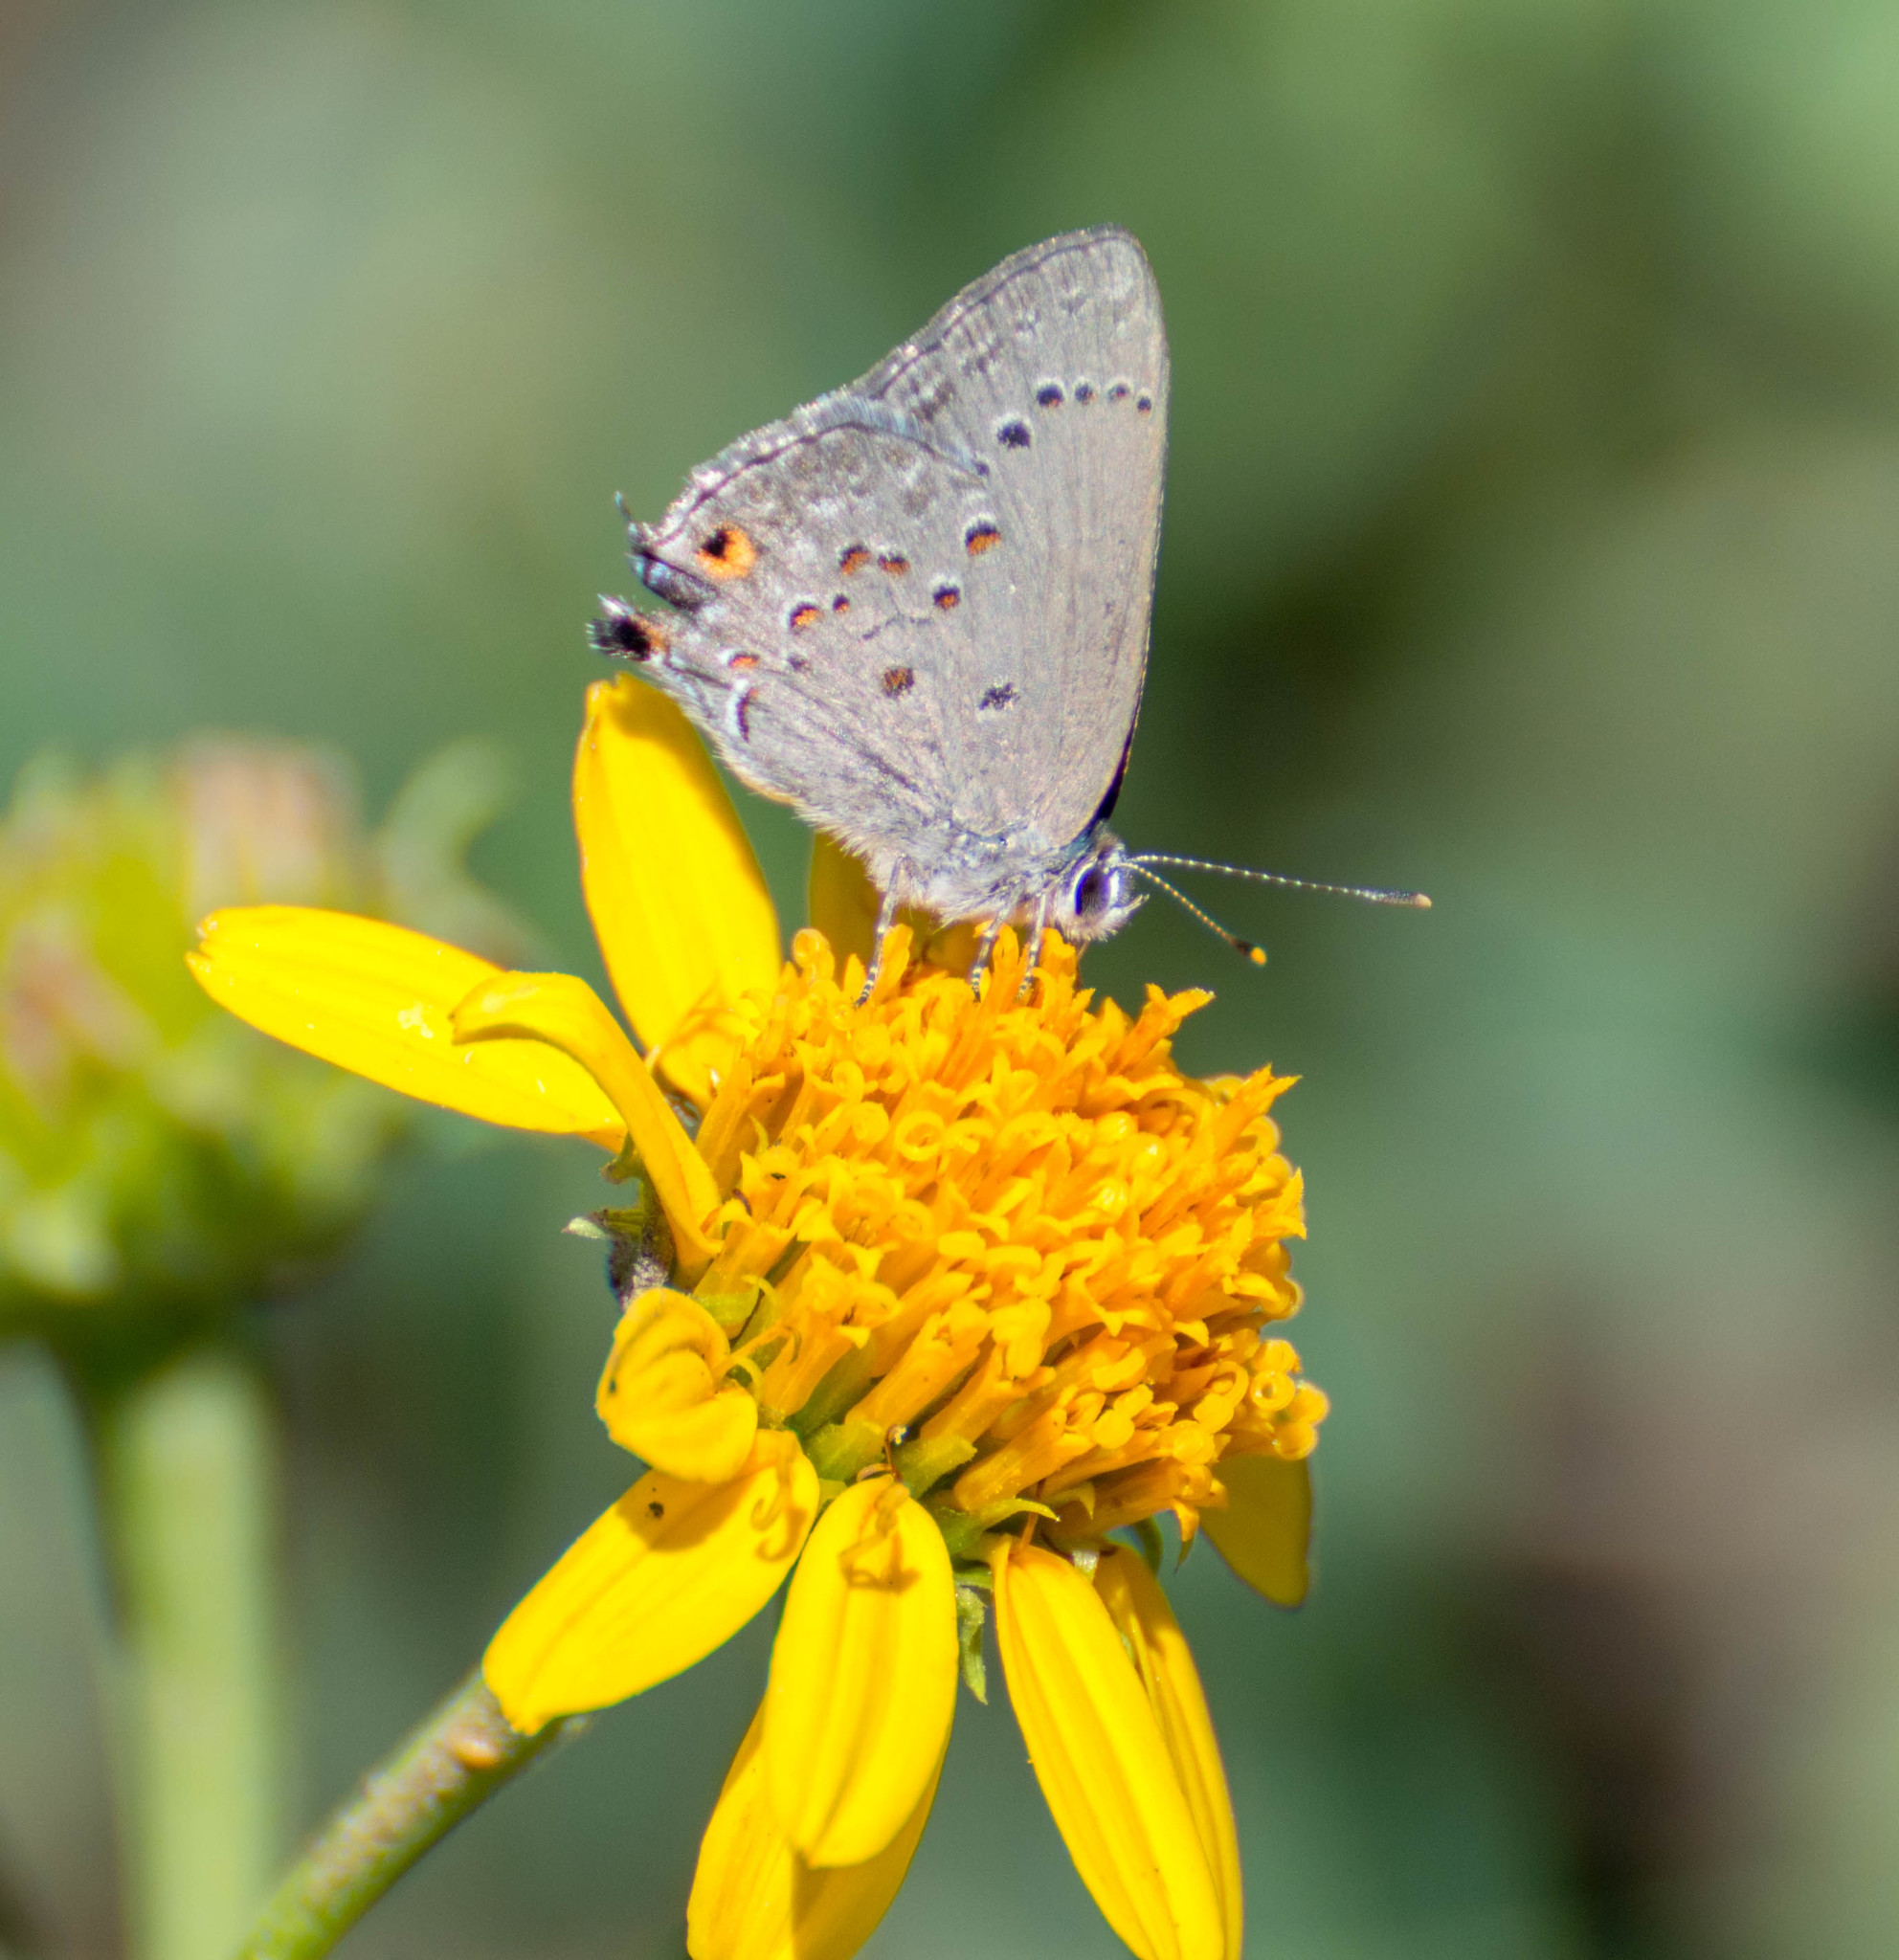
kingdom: Animalia
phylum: Arthropoda
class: Insecta
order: Lepidoptera
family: Lycaenidae
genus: Strymon
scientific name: Strymon eurytulus
